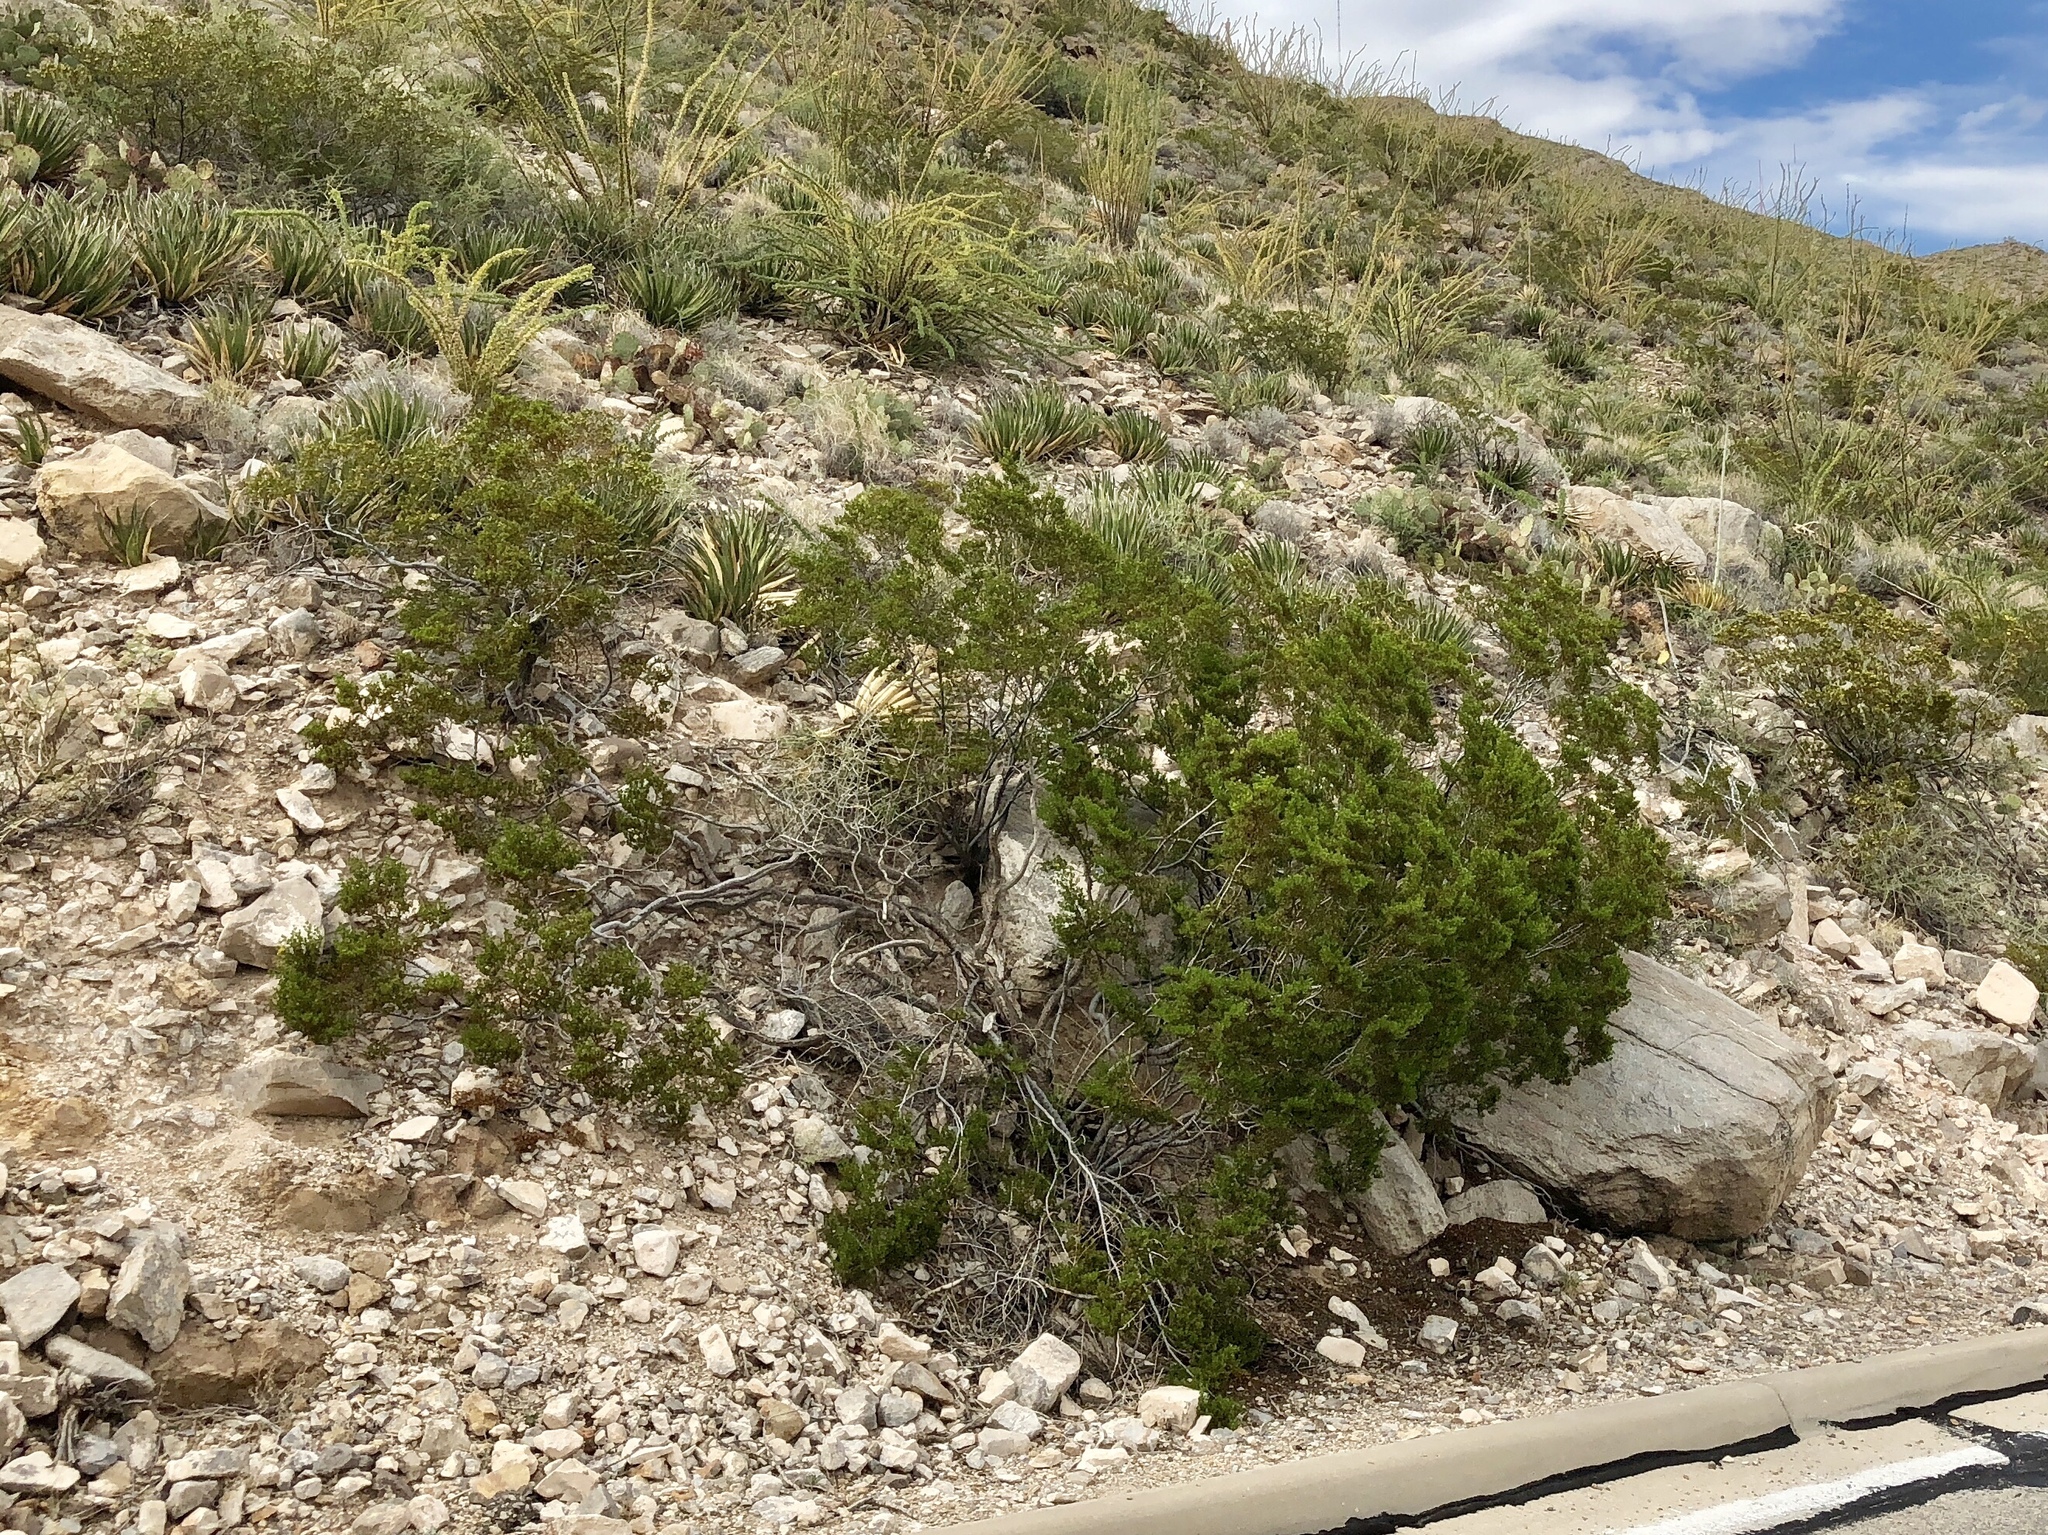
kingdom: Plantae
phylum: Tracheophyta
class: Magnoliopsida
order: Zygophyllales
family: Zygophyllaceae
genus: Larrea
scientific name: Larrea tridentata
